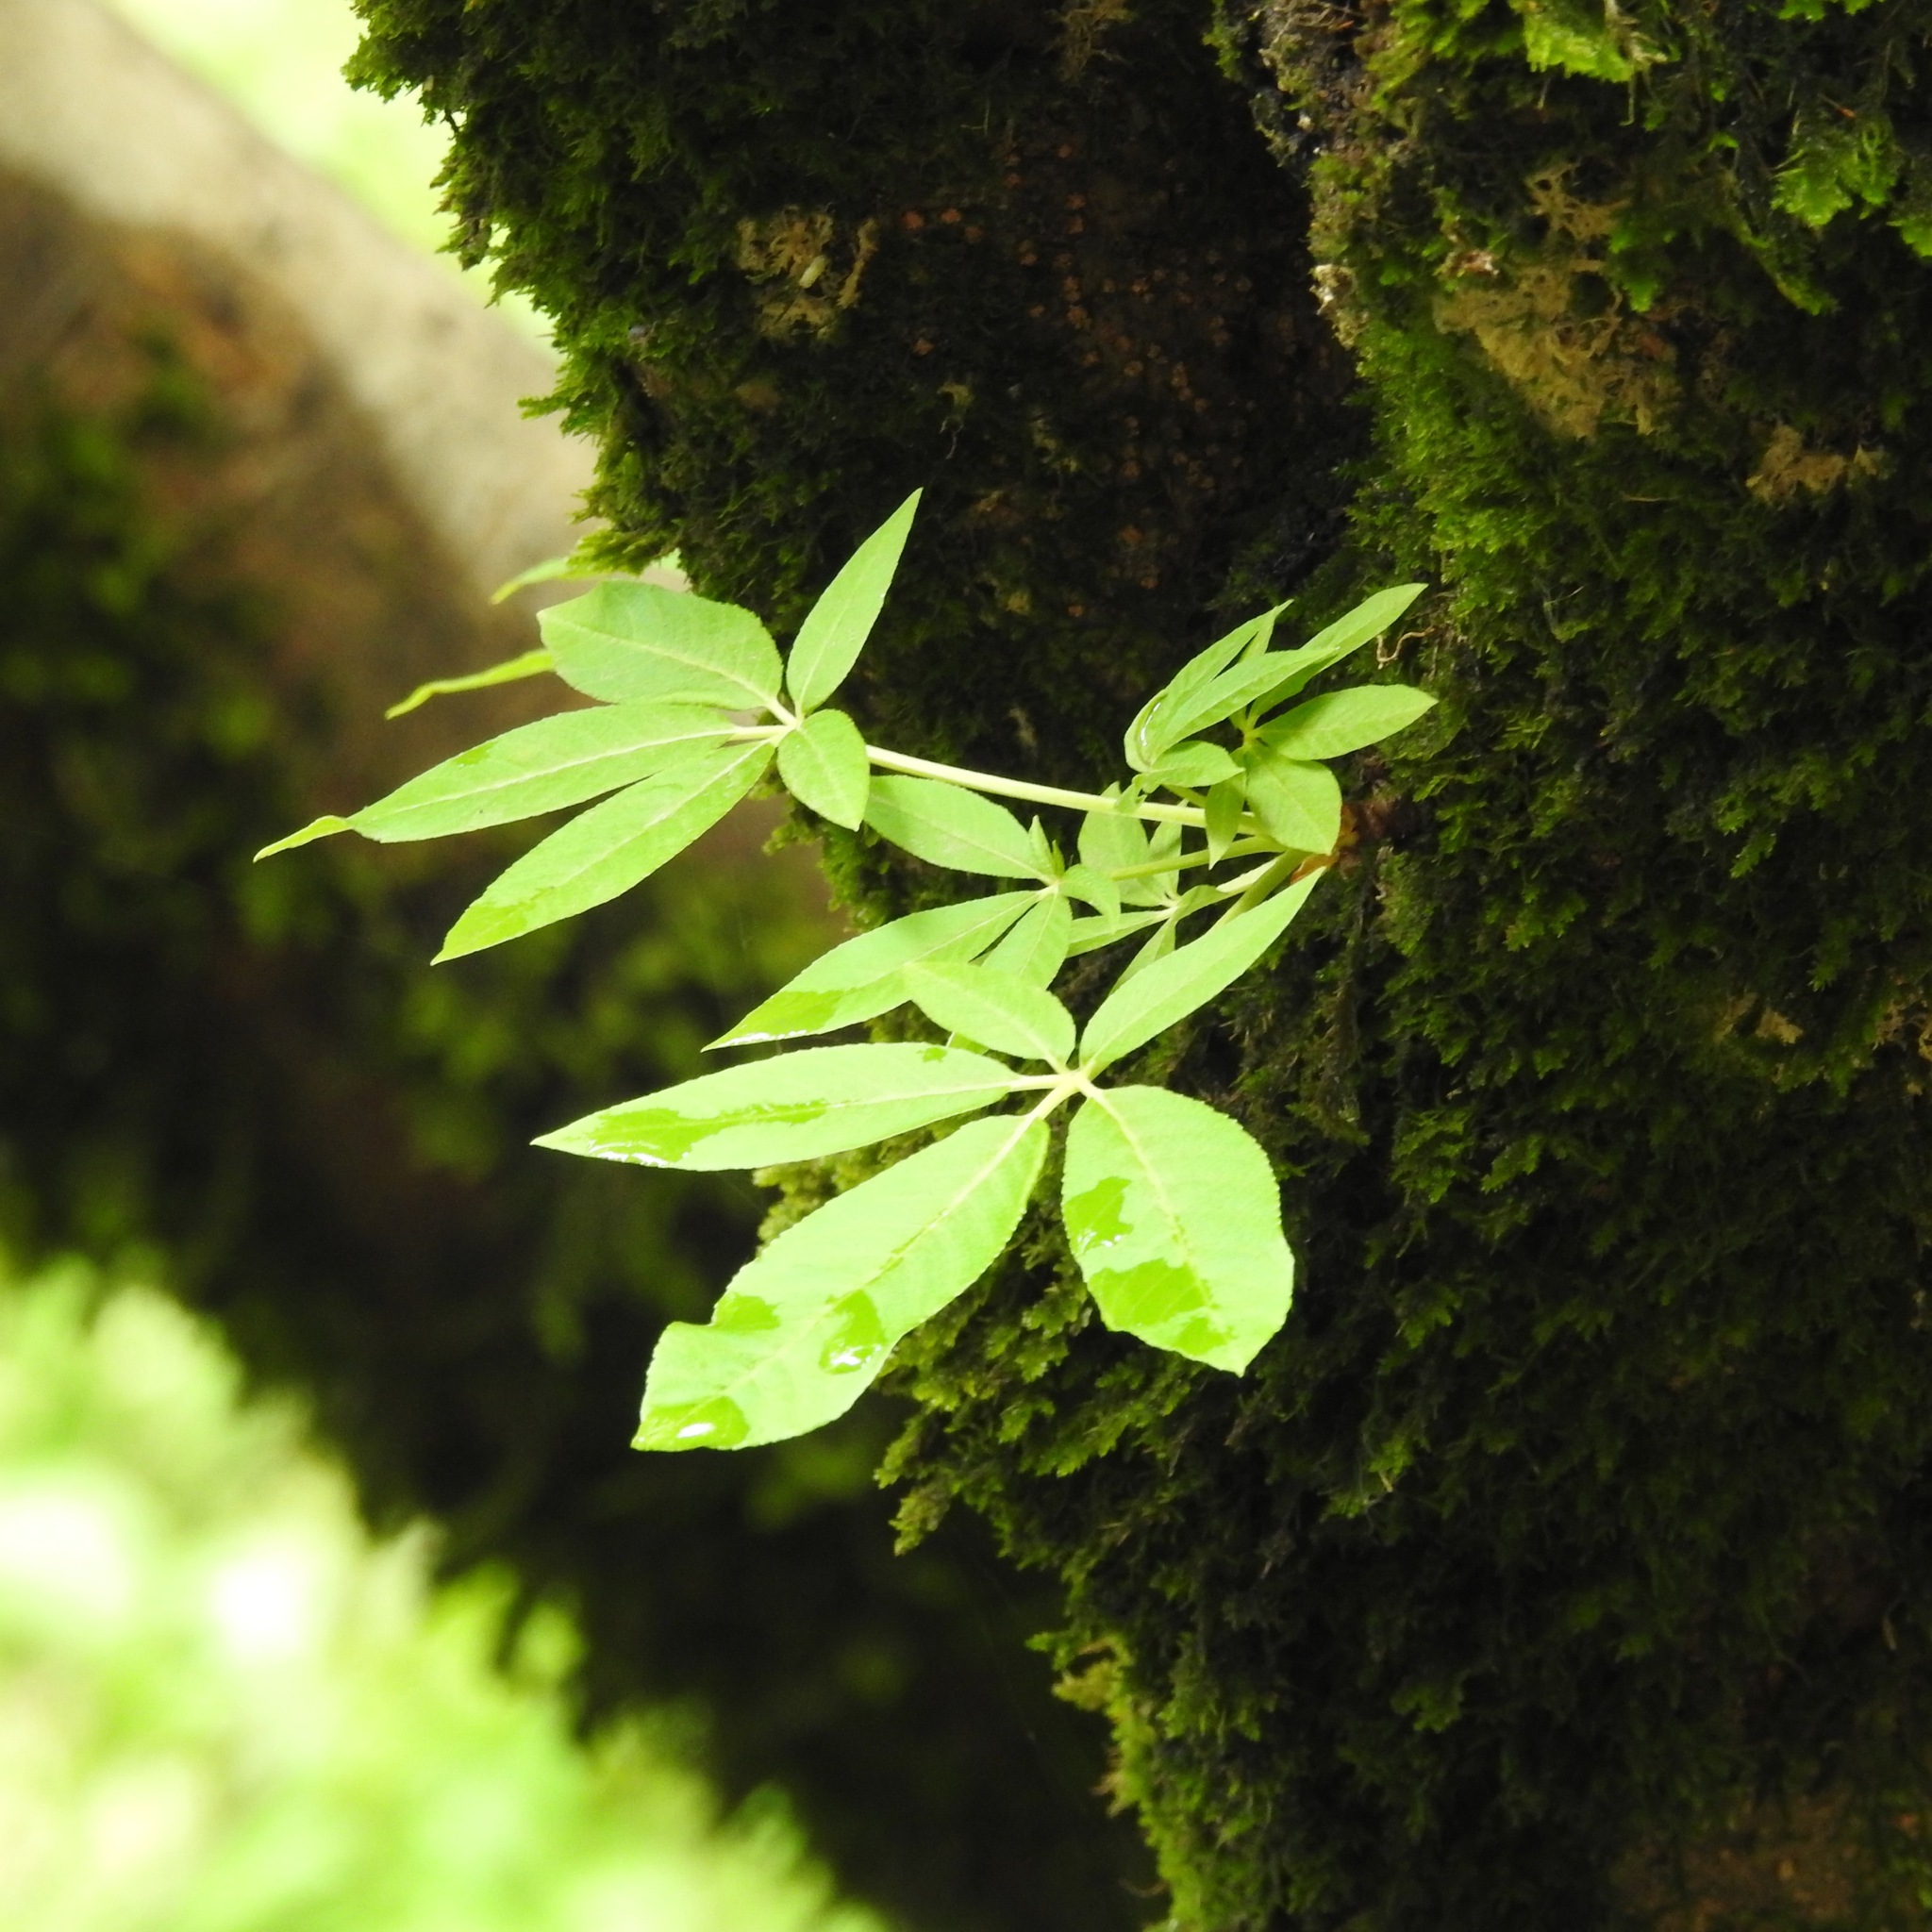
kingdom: Plantae
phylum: Tracheophyta
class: Magnoliopsida
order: Sapindales
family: Sapindaceae
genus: Aesculus
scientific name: Aesculus californica
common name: California buckeye
